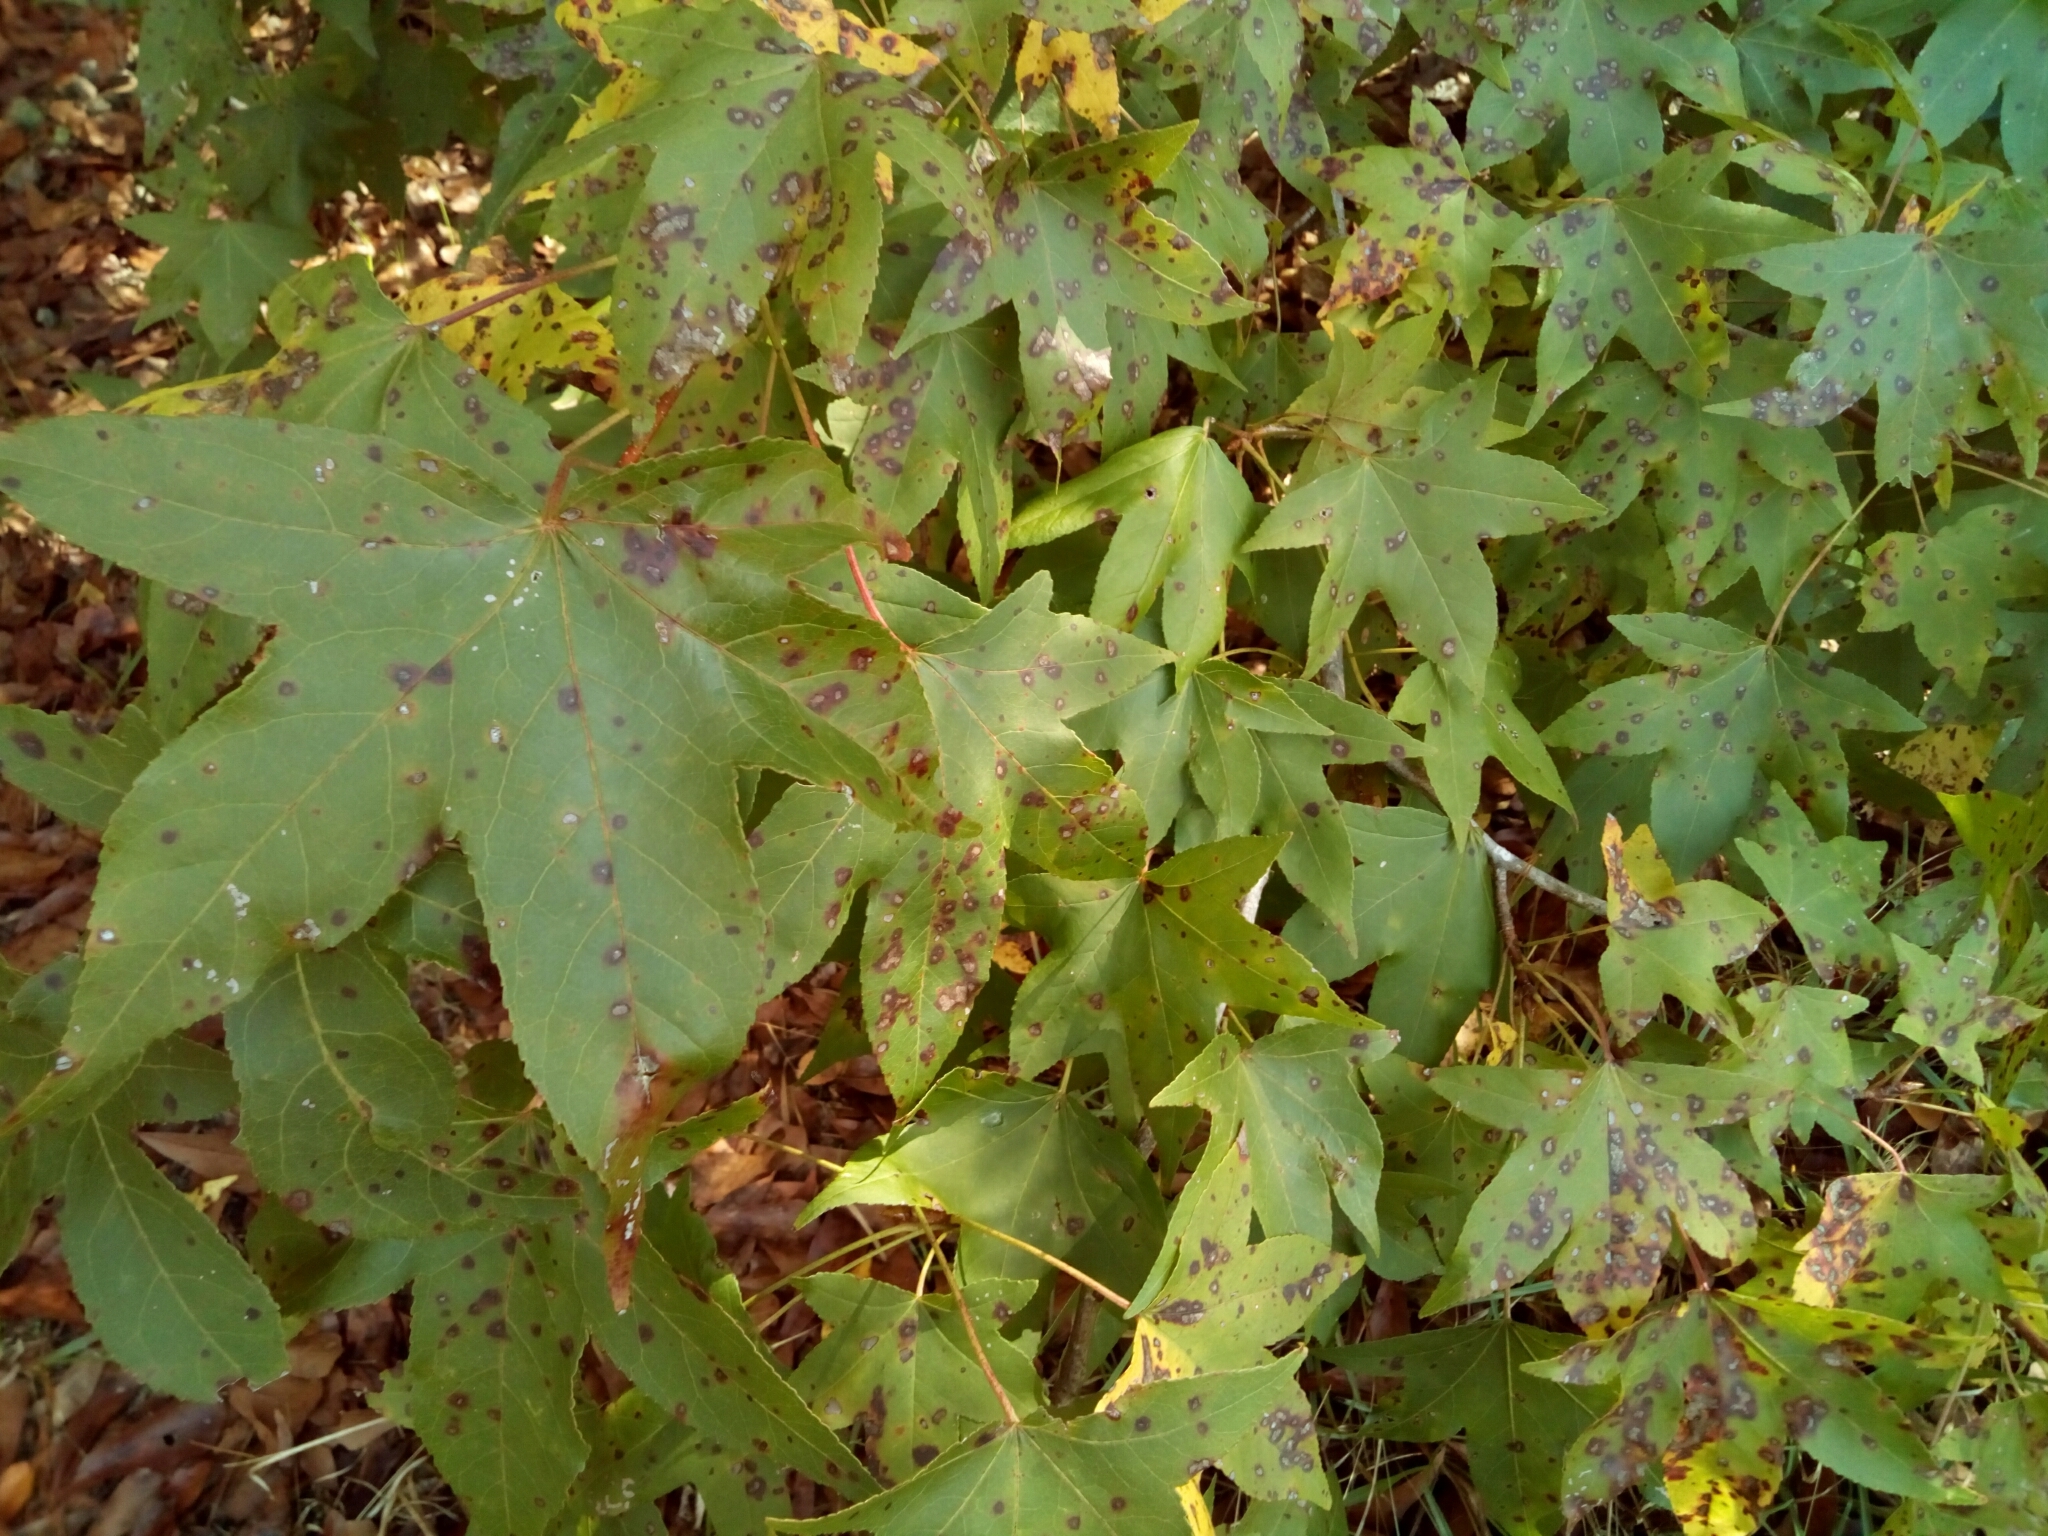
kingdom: Plantae
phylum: Tracheophyta
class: Magnoliopsida
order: Saxifragales
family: Altingiaceae
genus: Liquidambar
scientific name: Liquidambar styraciflua
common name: Sweet gum
